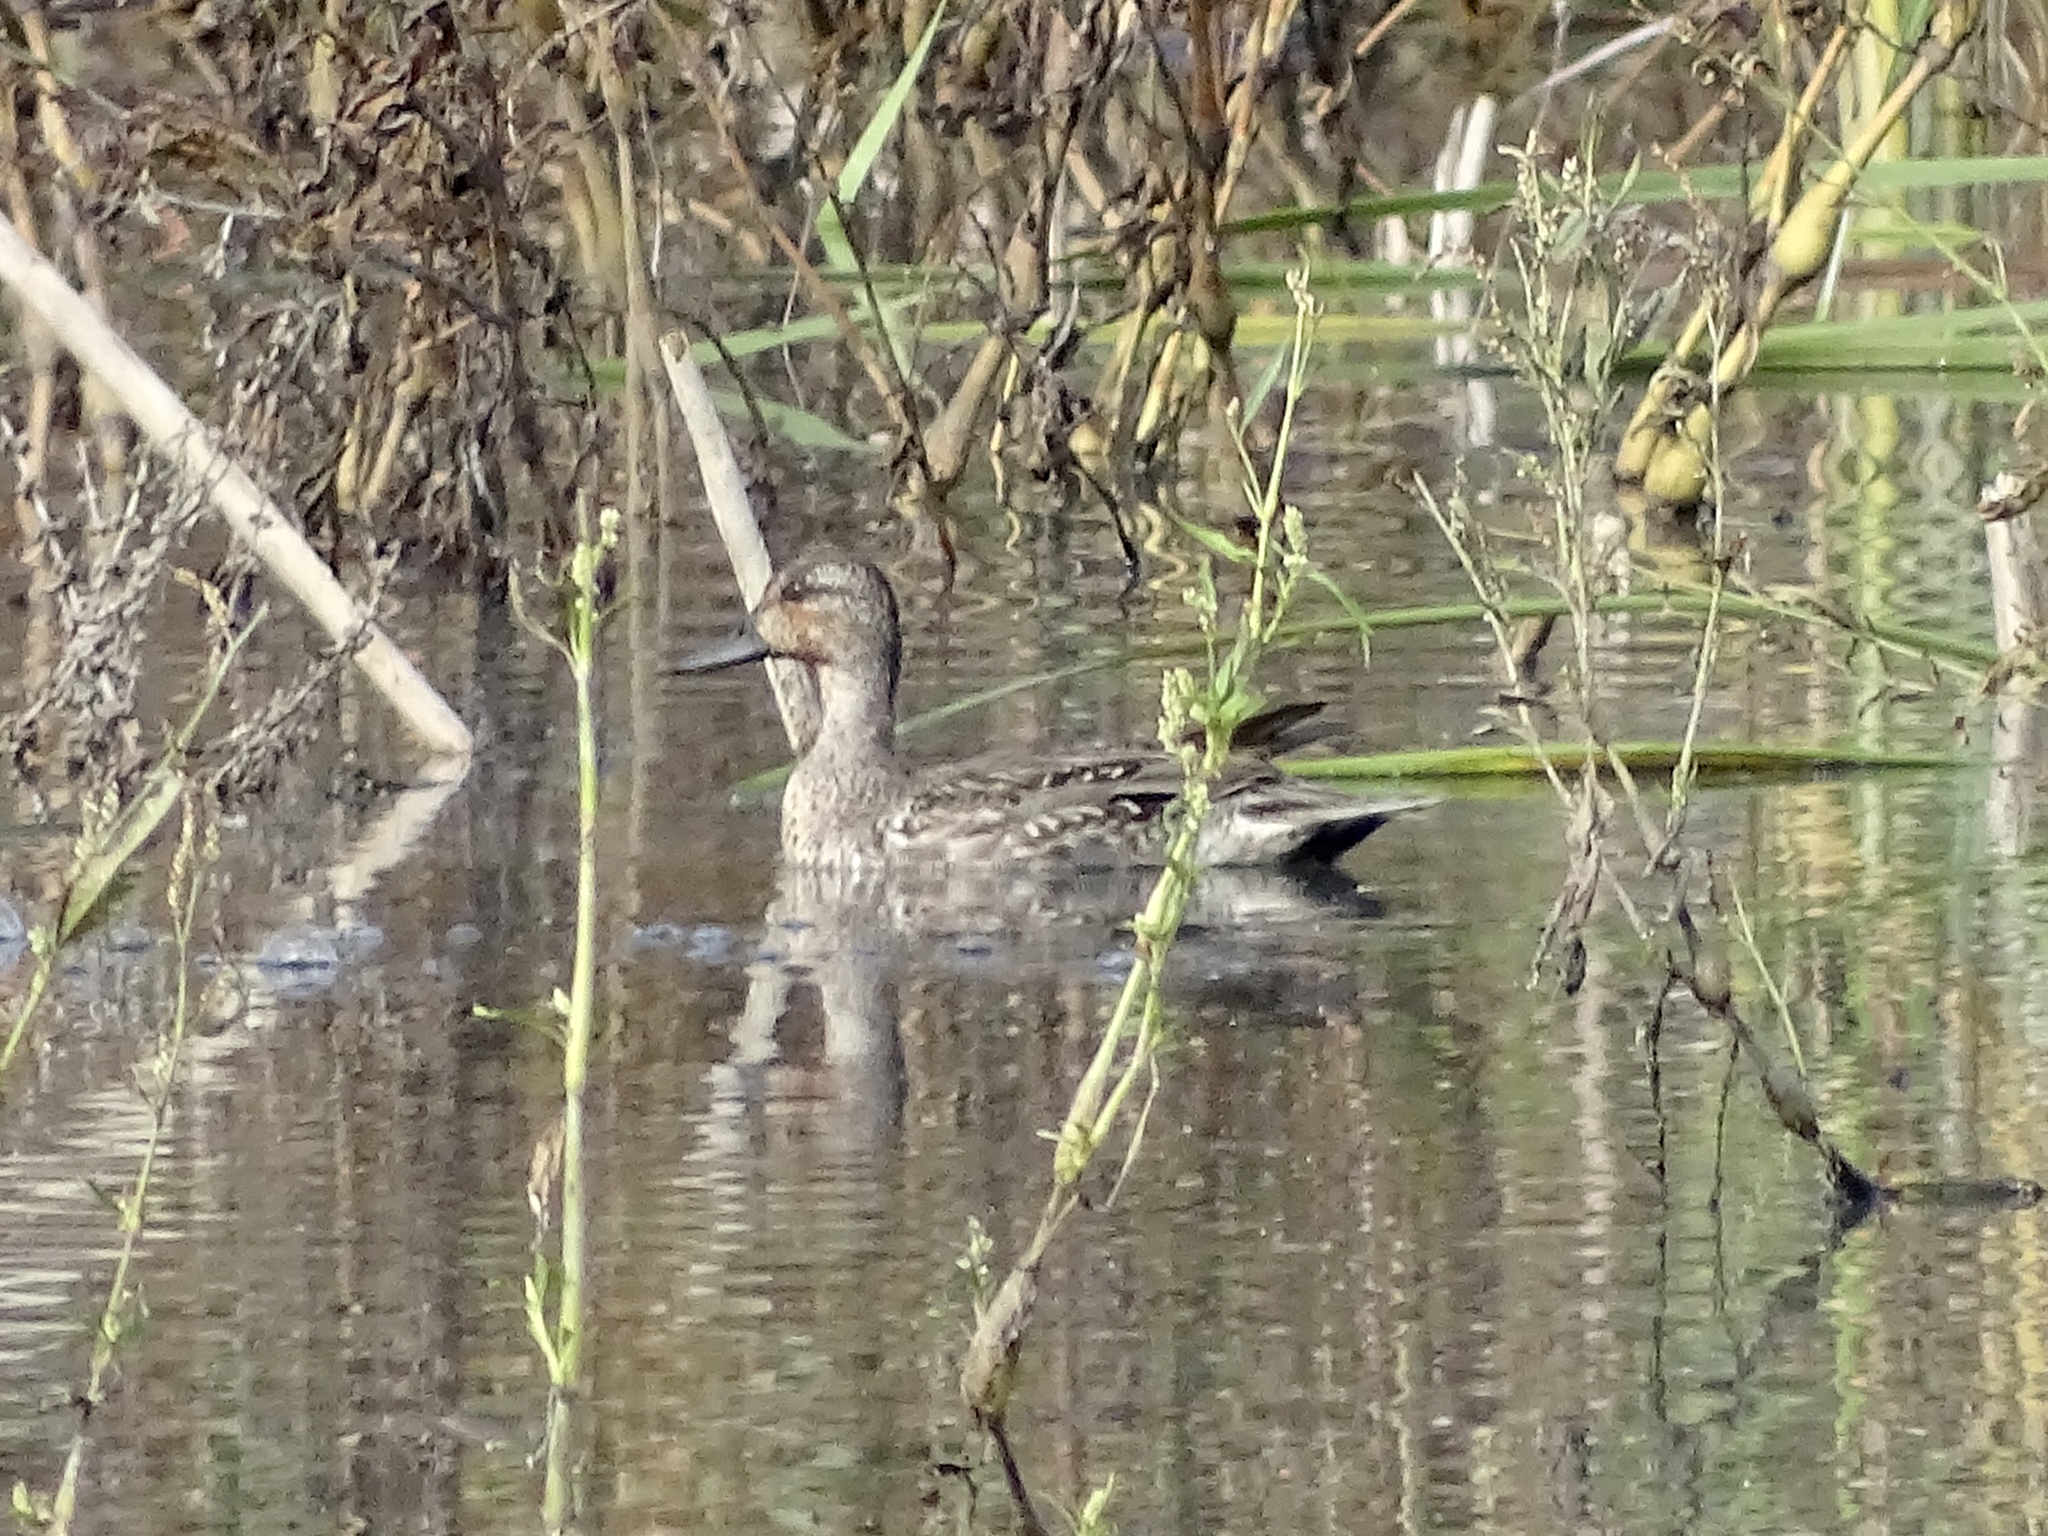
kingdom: Animalia
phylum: Chordata
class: Aves
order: Anseriformes
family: Anatidae
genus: Anas
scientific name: Anas crecca
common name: Eurasian teal
